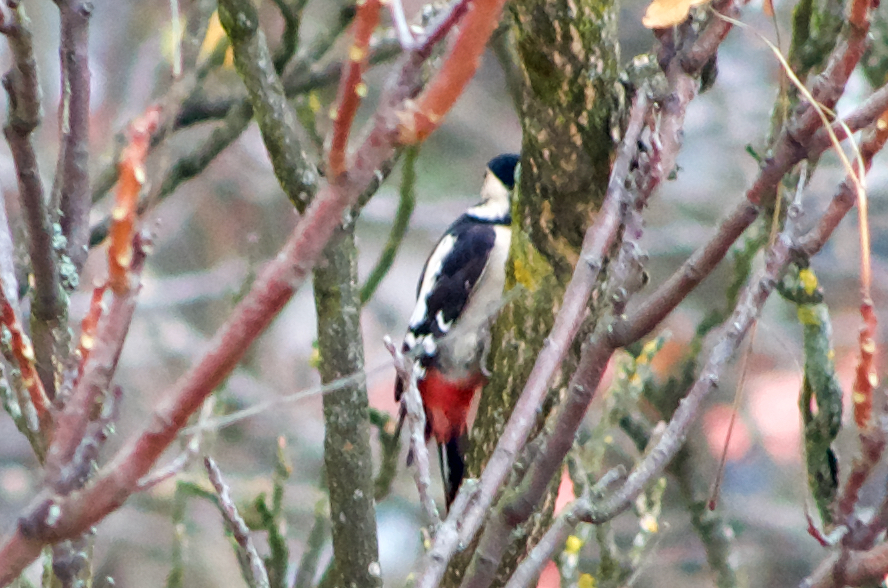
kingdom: Animalia
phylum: Chordata
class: Aves
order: Piciformes
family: Picidae
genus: Dendrocopos
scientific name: Dendrocopos syriacus
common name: Syrian woodpecker
